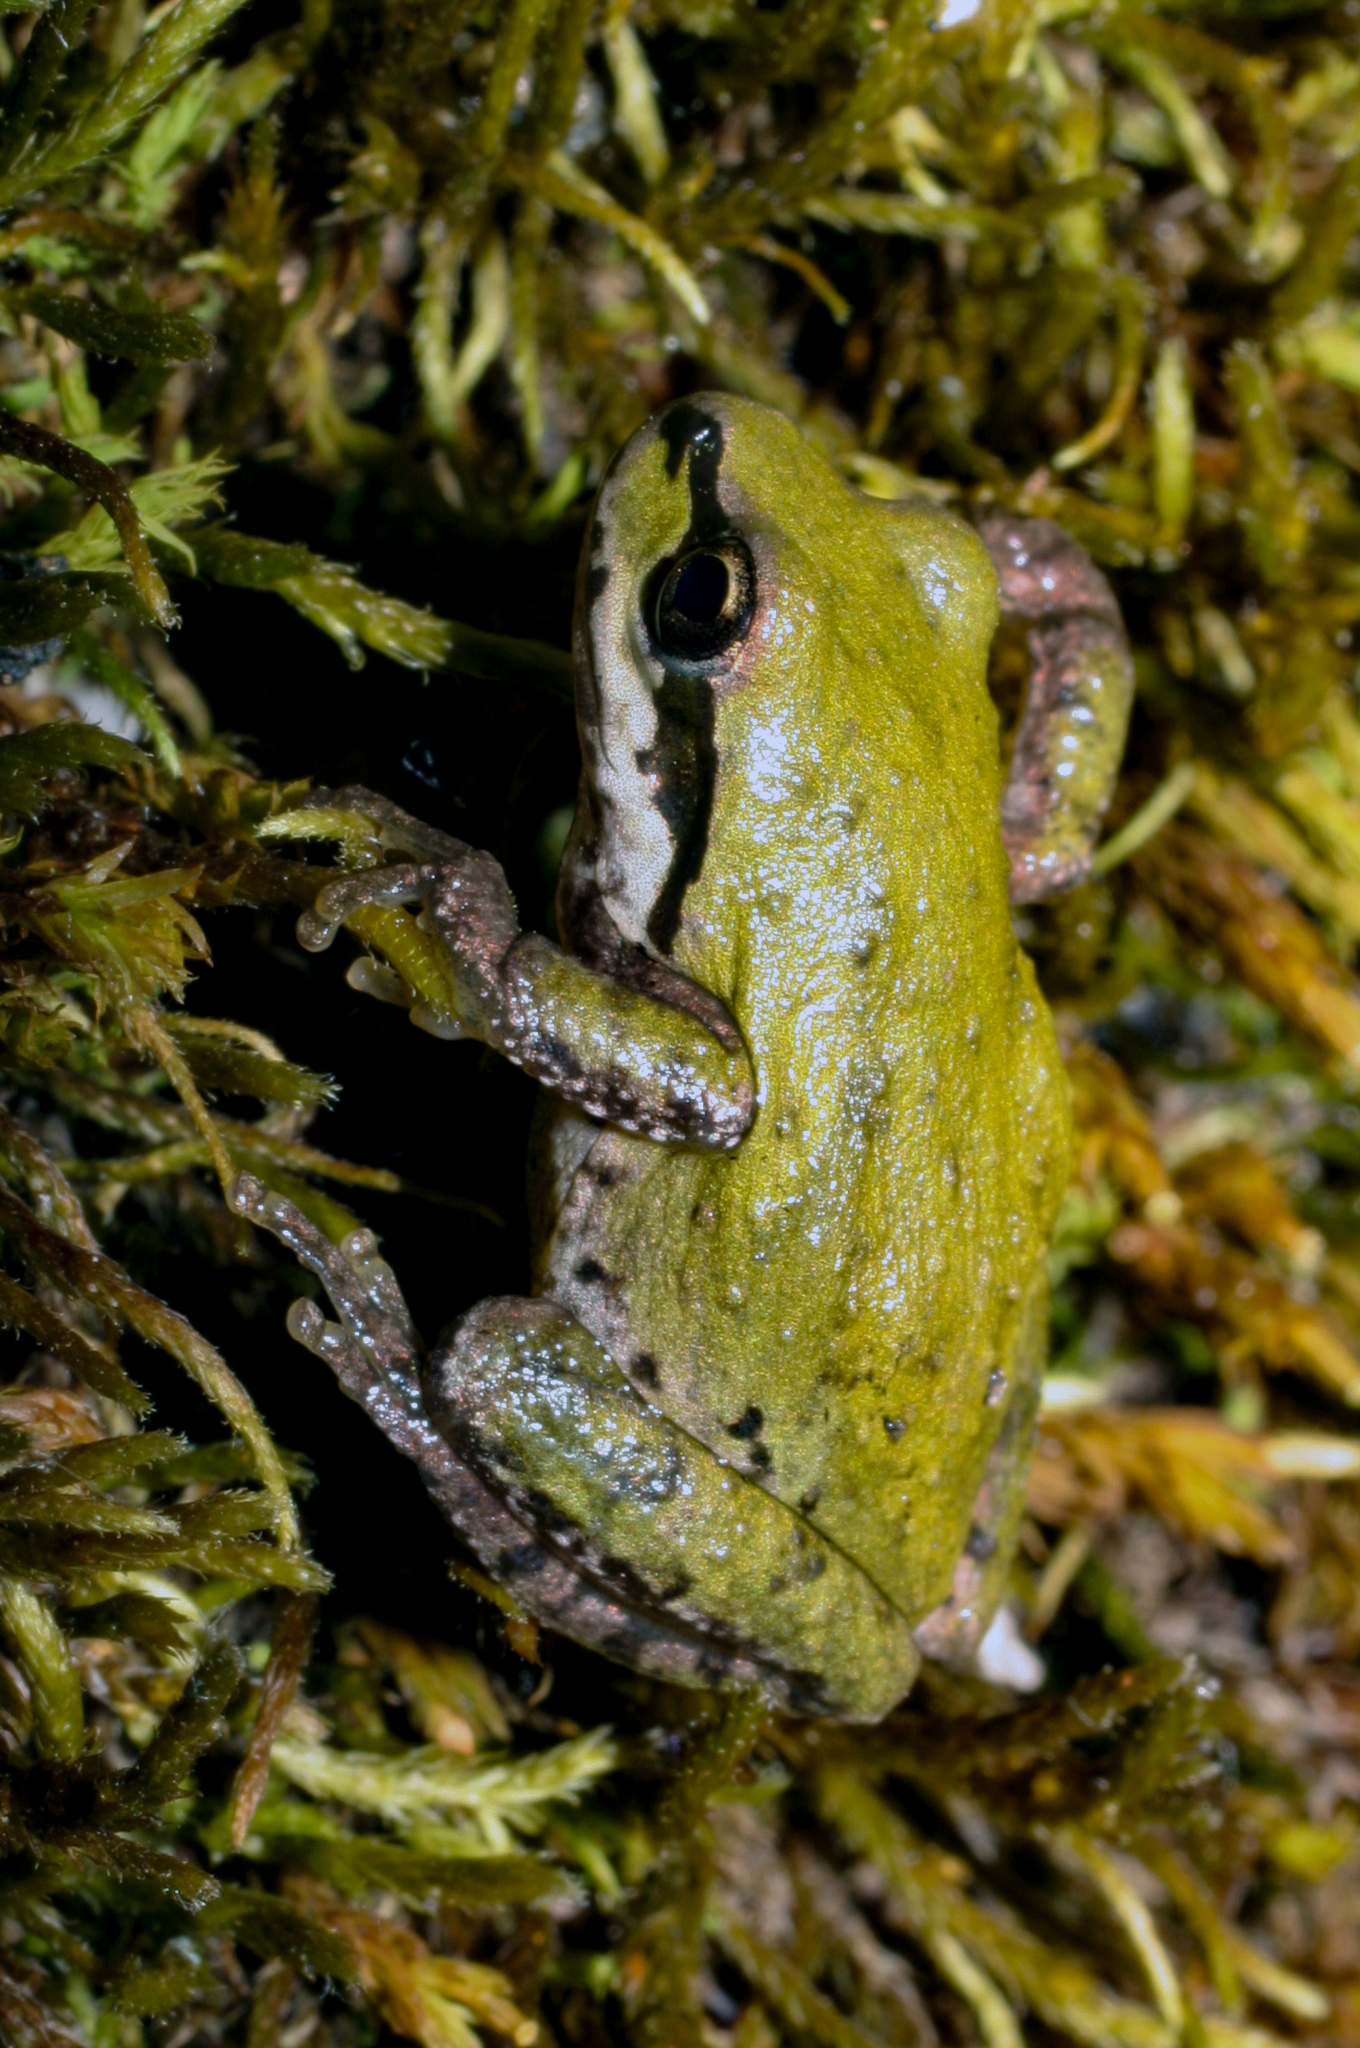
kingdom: Animalia
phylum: Chordata
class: Amphibia
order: Anura
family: Hylidae
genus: Pseudacris
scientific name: Pseudacris regilla
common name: Pacific chorus frog
